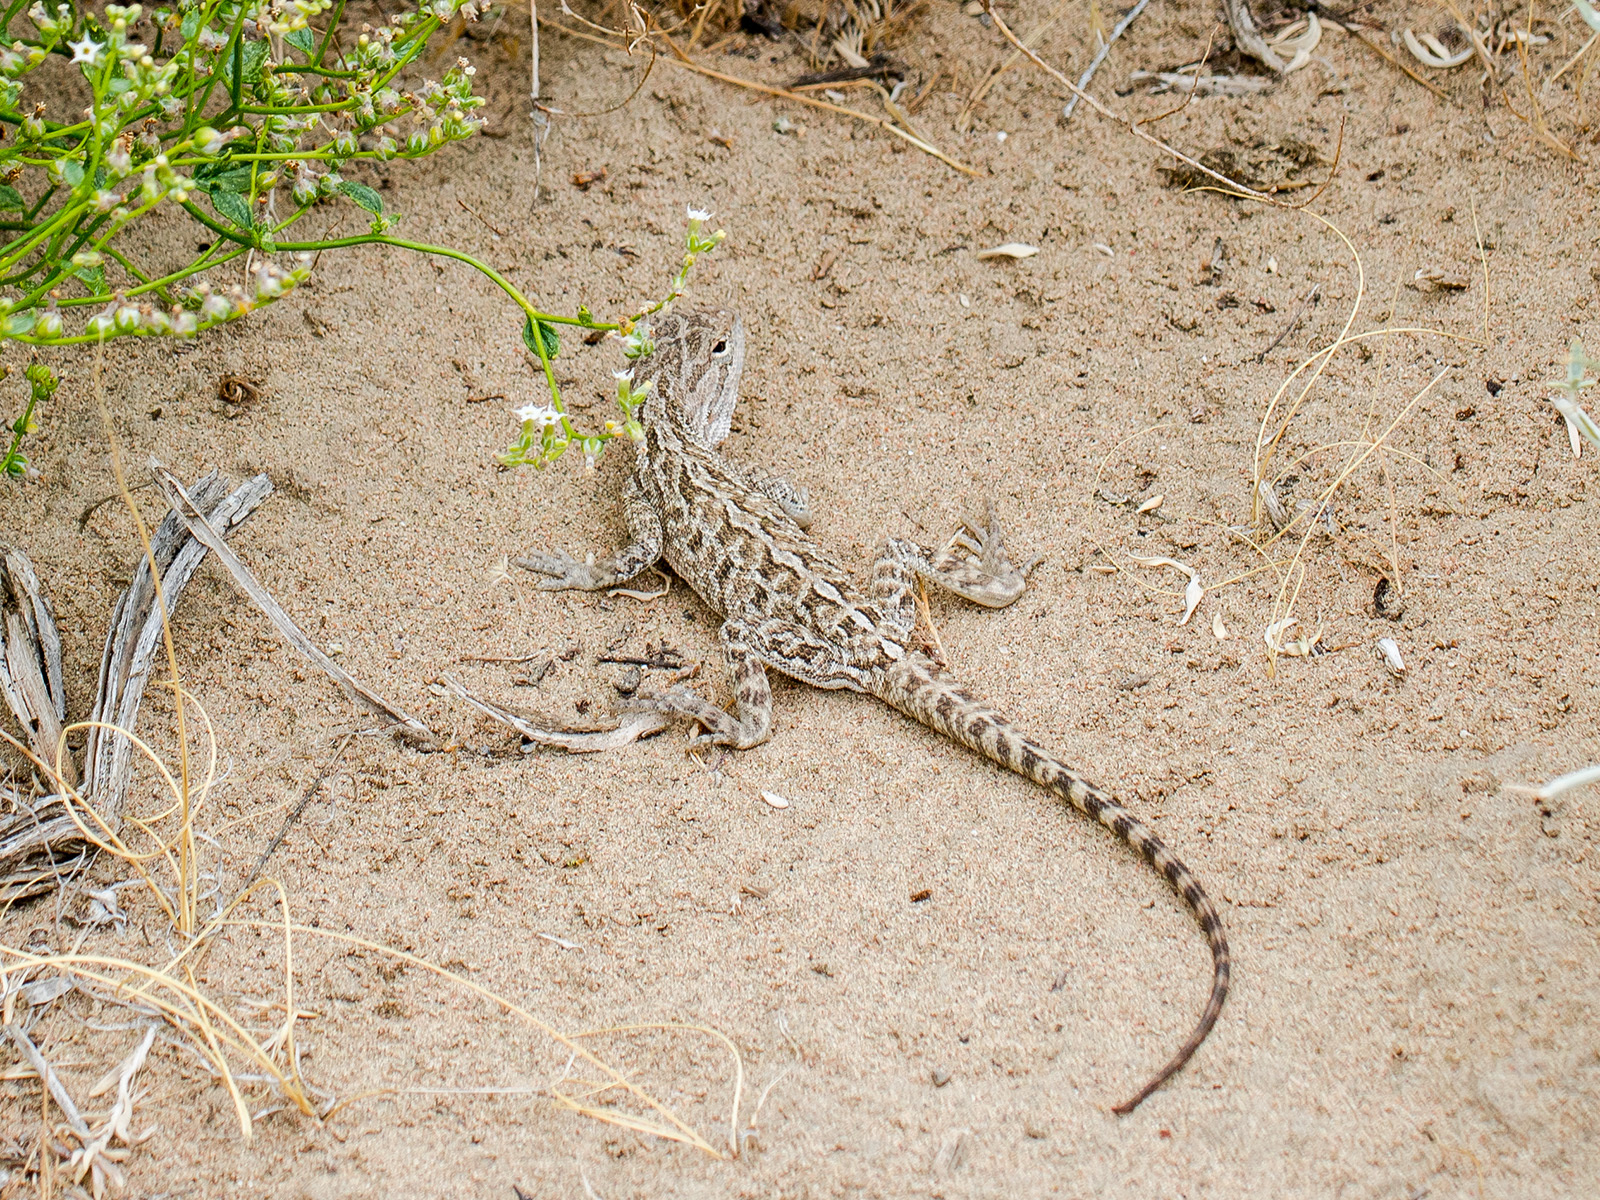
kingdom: Animalia
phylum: Chordata
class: Squamata
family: Agamidae
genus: Trapelus
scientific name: Trapelus sanguinolentus
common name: Steppe agama
